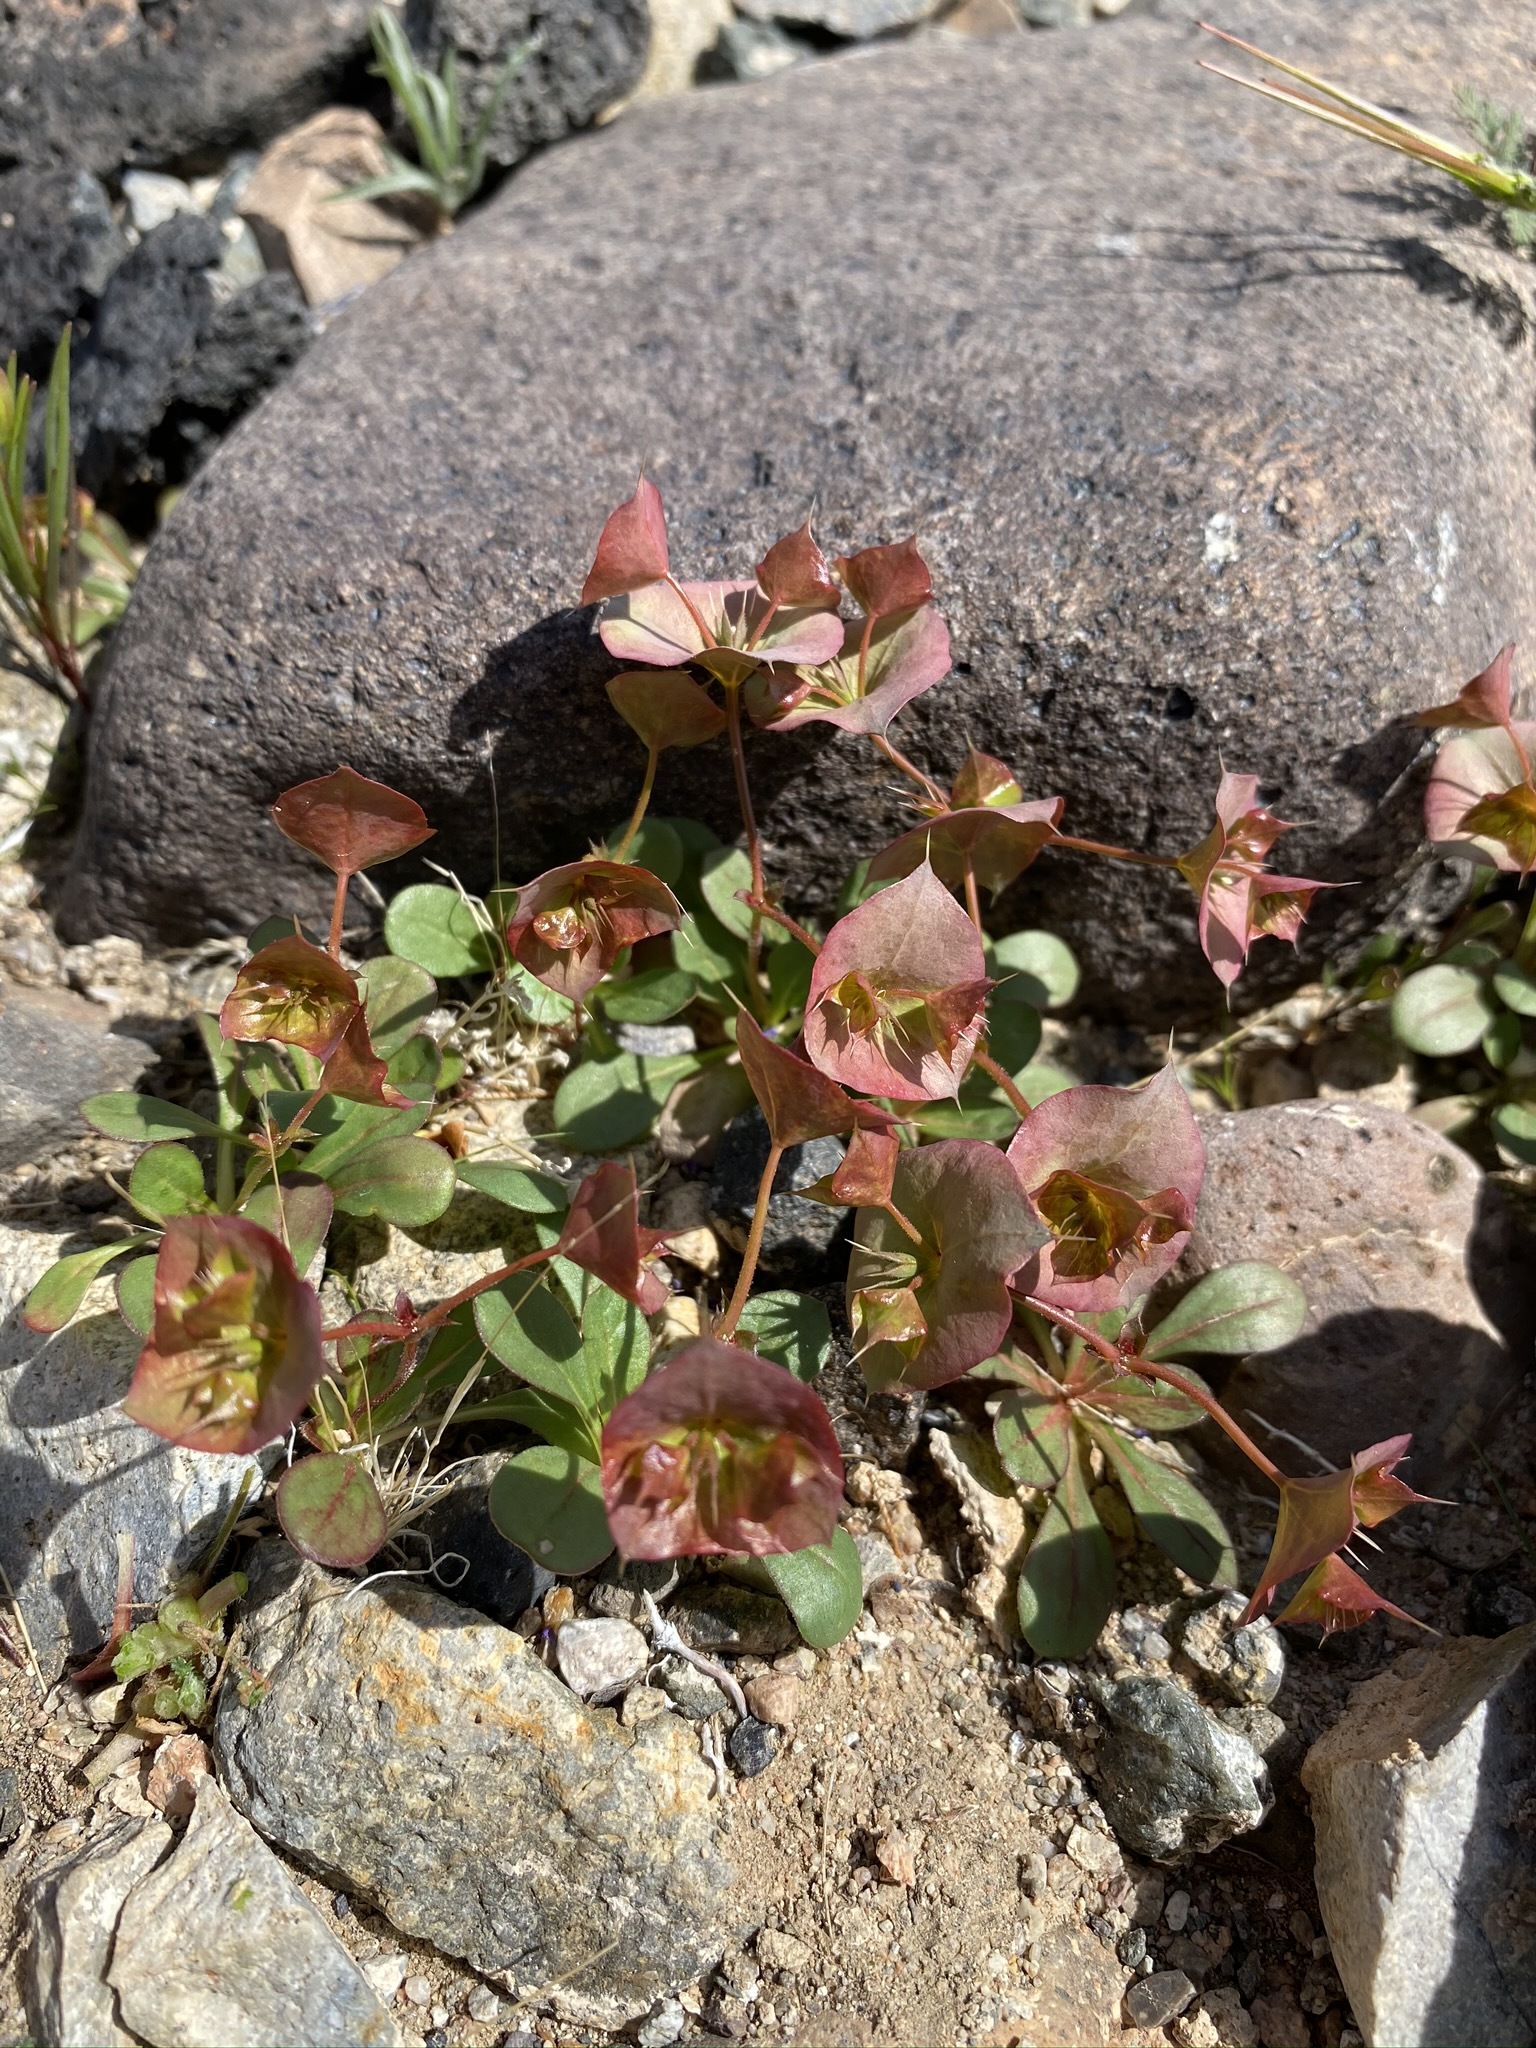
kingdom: Plantae
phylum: Tracheophyta
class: Magnoliopsida
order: Caryophyllales
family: Polygonaceae
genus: Oxytheca
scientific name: Oxytheca perfoliata
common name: Round-leaf puncturebract
